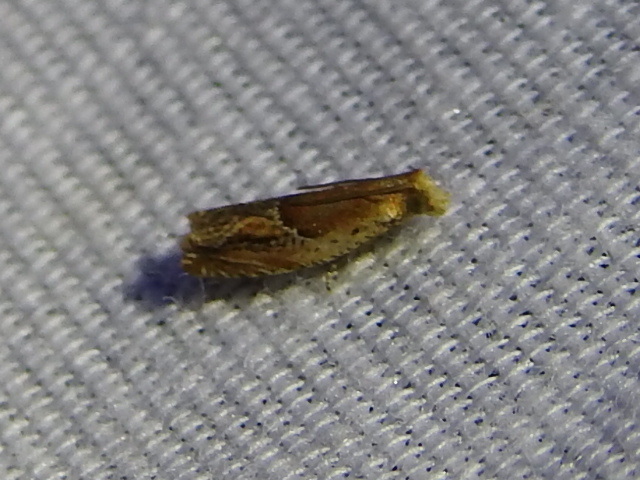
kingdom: Animalia
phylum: Arthropoda
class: Insecta
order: Lepidoptera
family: Tortricidae
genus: Ancylis
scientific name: Ancylis comptana
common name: Little roller
